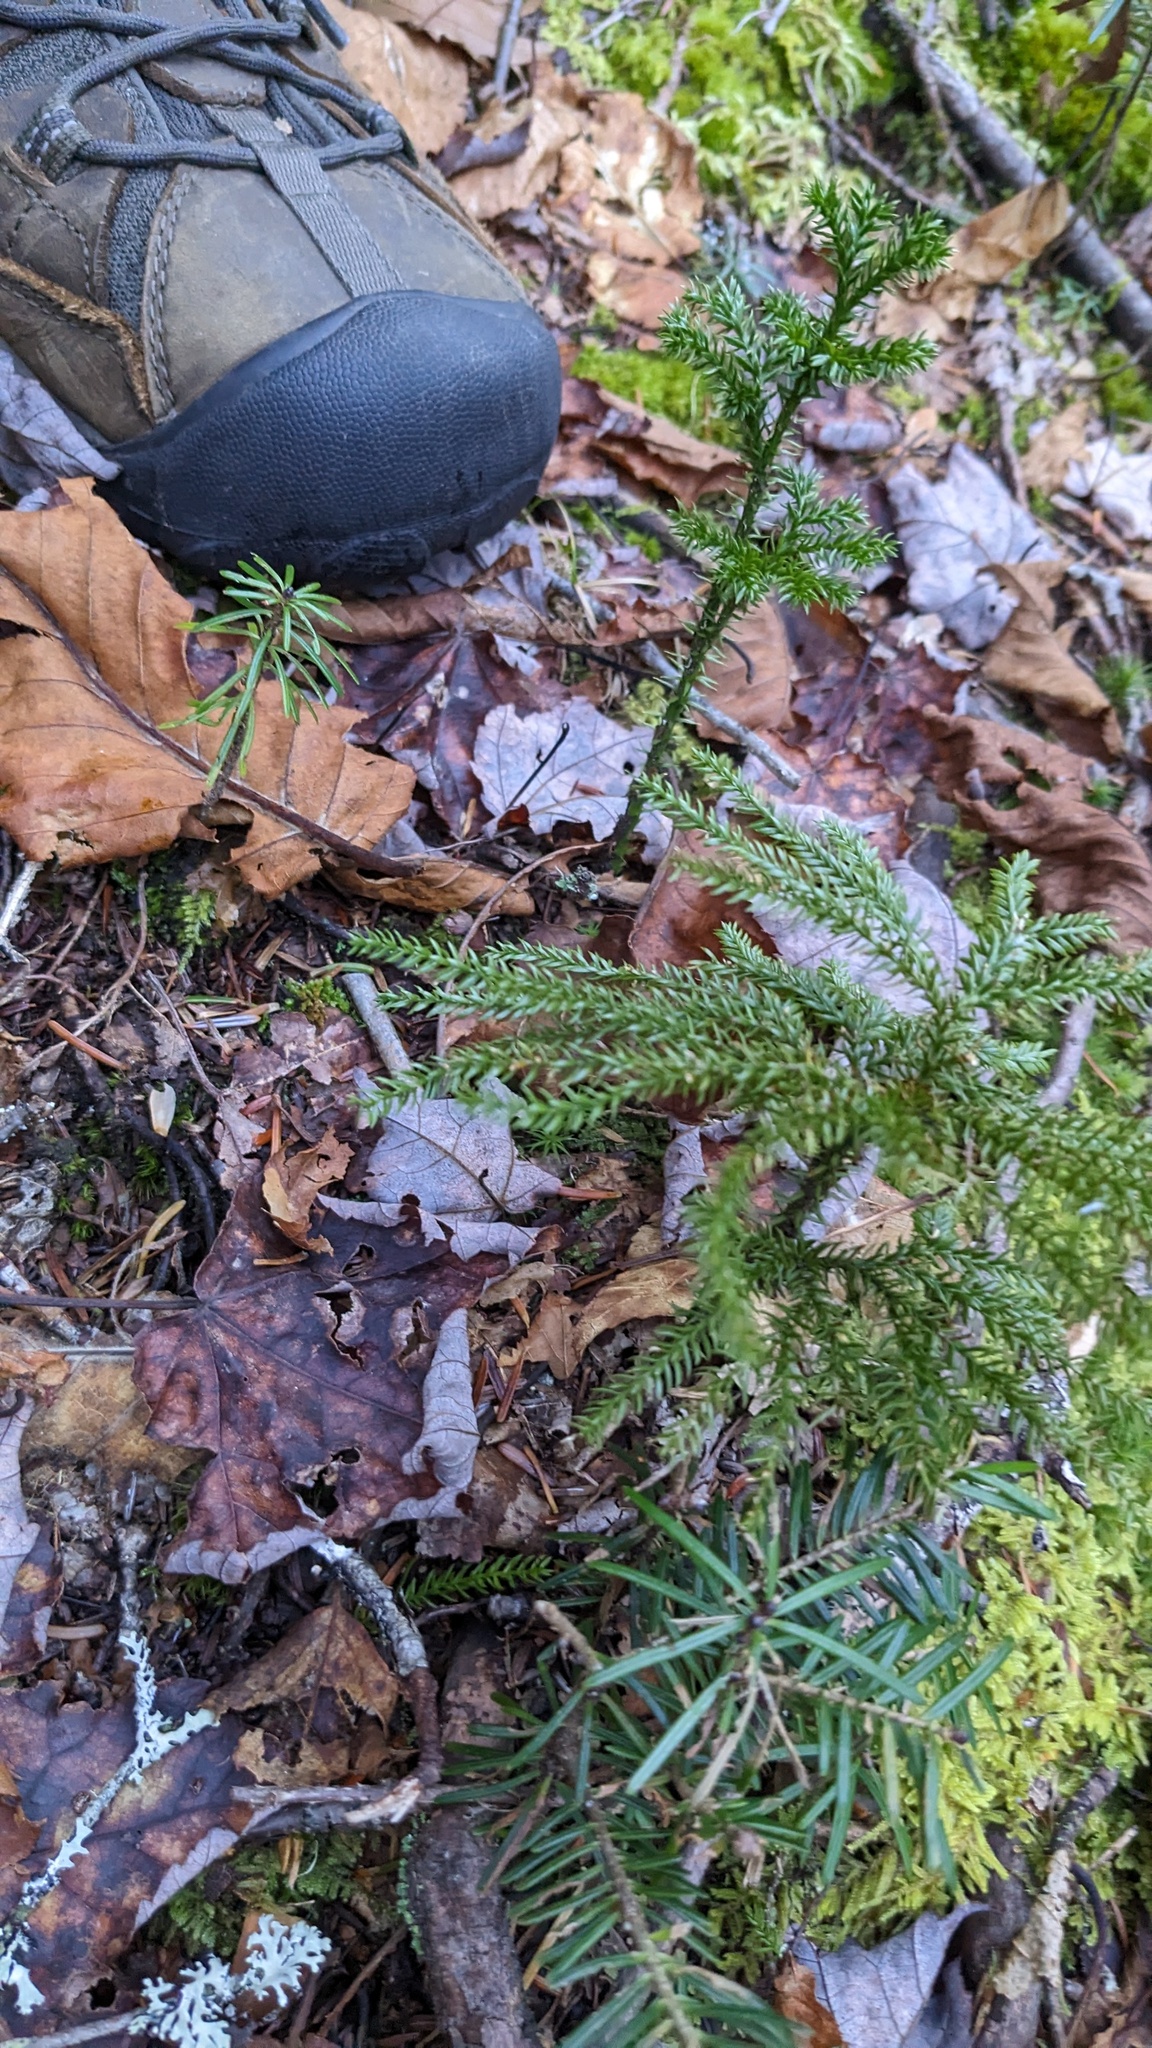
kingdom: Plantae
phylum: Tracheophyta
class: Lycopodiopsida
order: Lycopodiales
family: Lycopodiaceae
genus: Dendrolycopodium
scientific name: Dendrolycopodium dendroideum
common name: Northern tree-clubmoss
